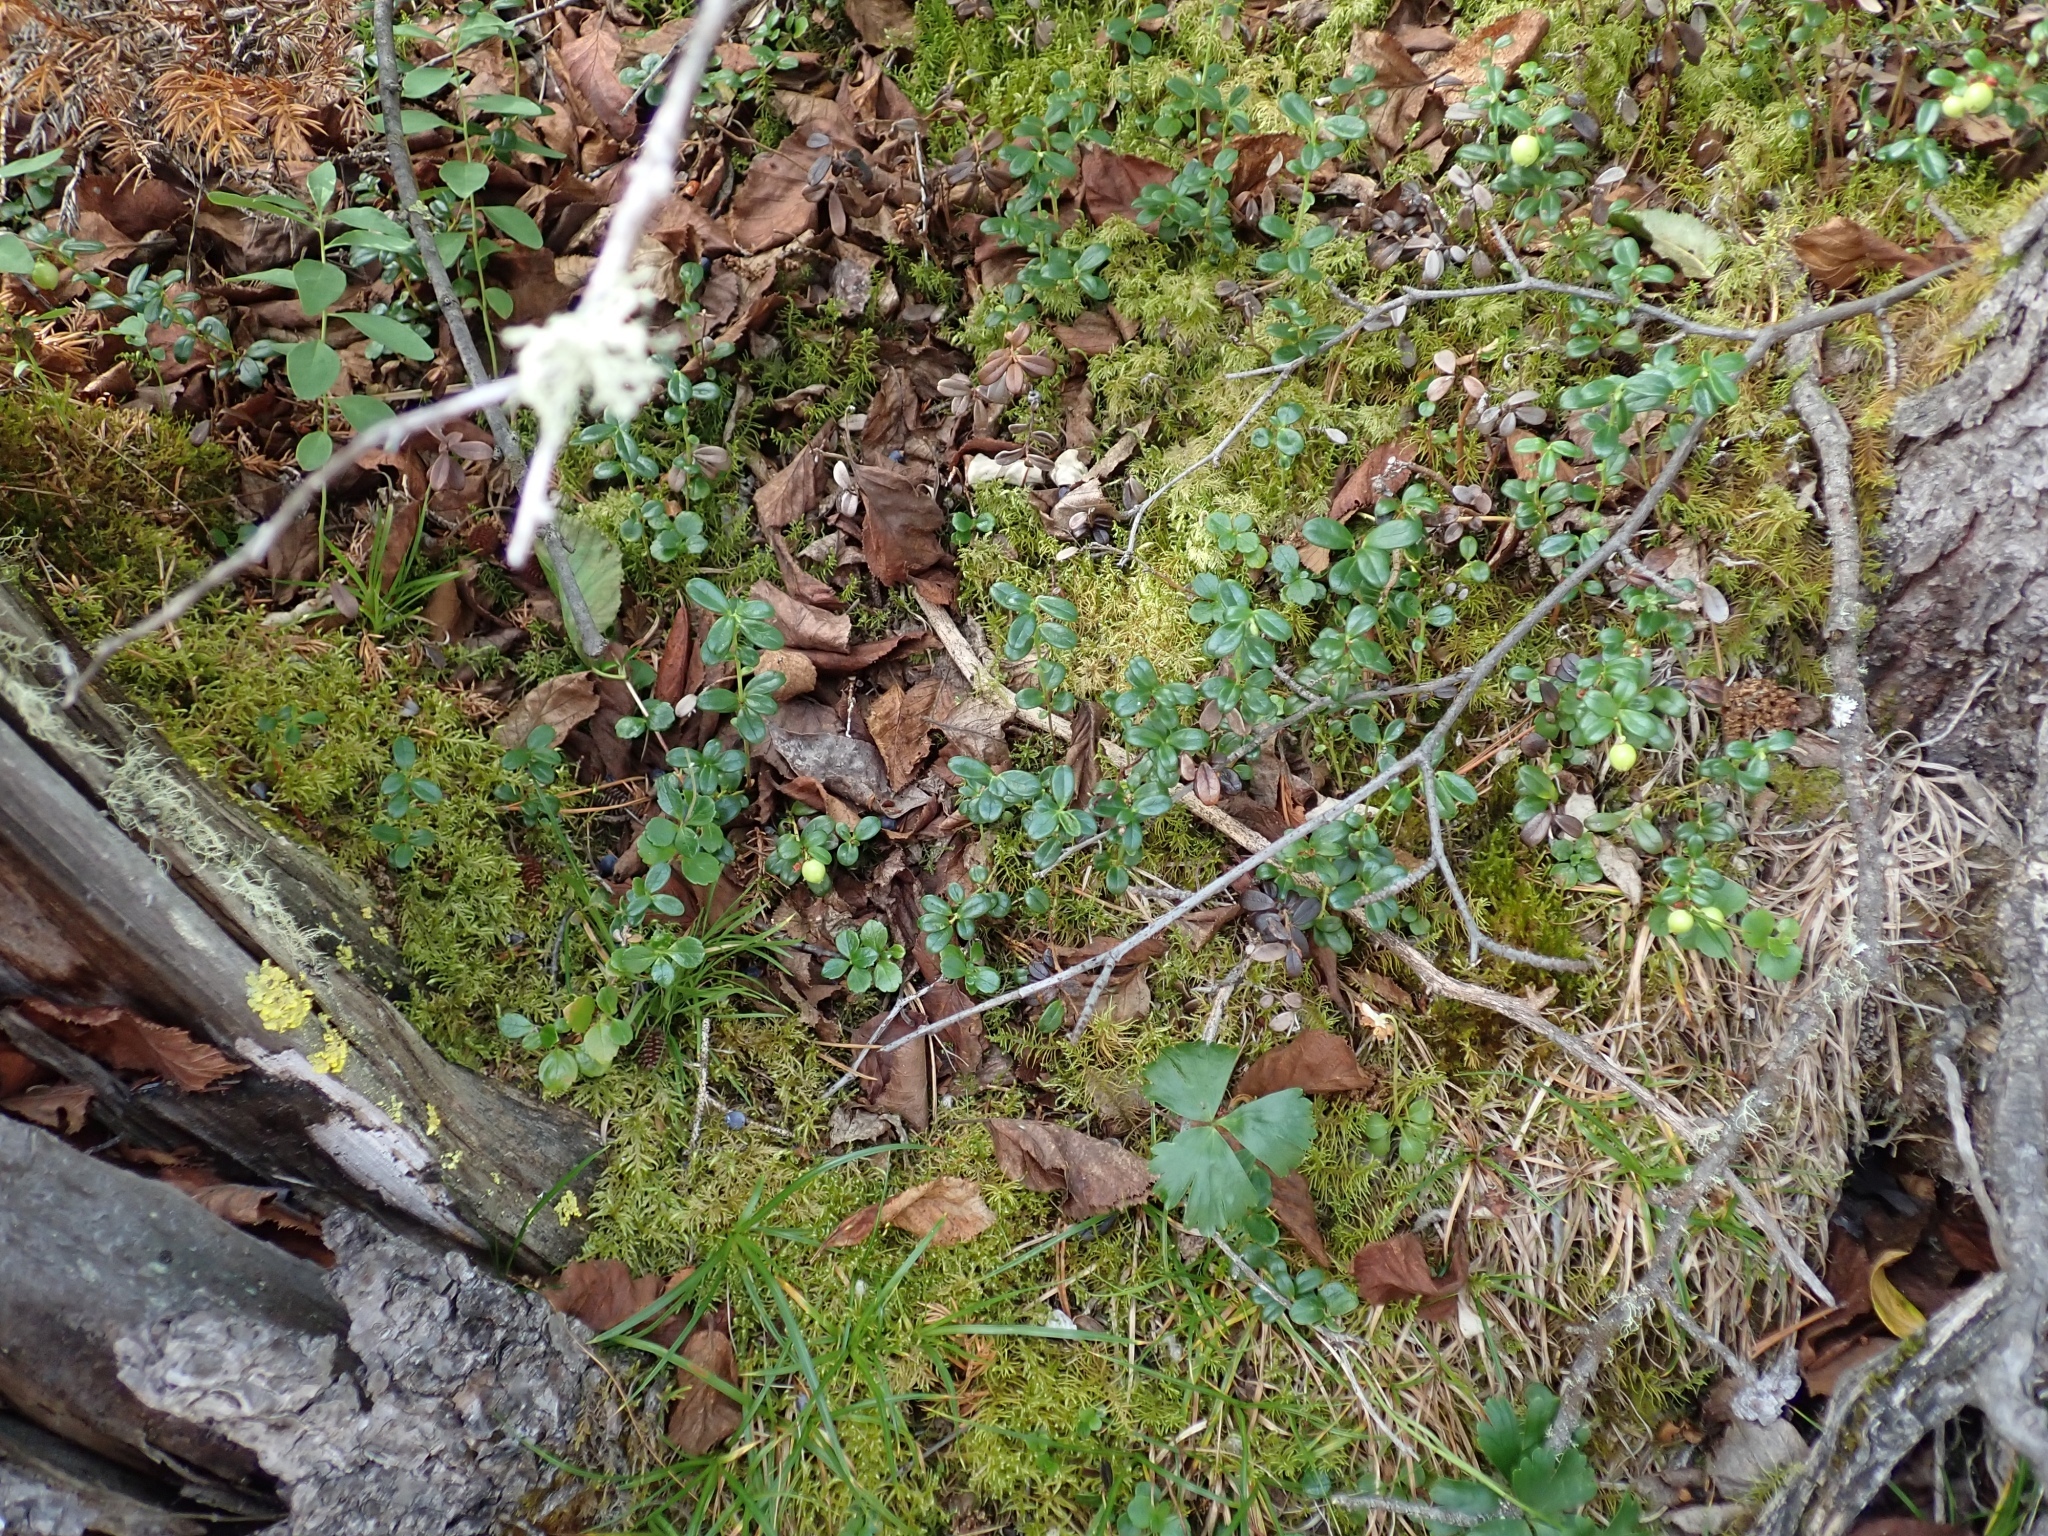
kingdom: Plantae
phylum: Tracheophyta
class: Magnoliopsida
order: Ericales
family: Ericaceae
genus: Vaccinium
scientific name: Vaccinium vitis-idaea
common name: Cowberry
